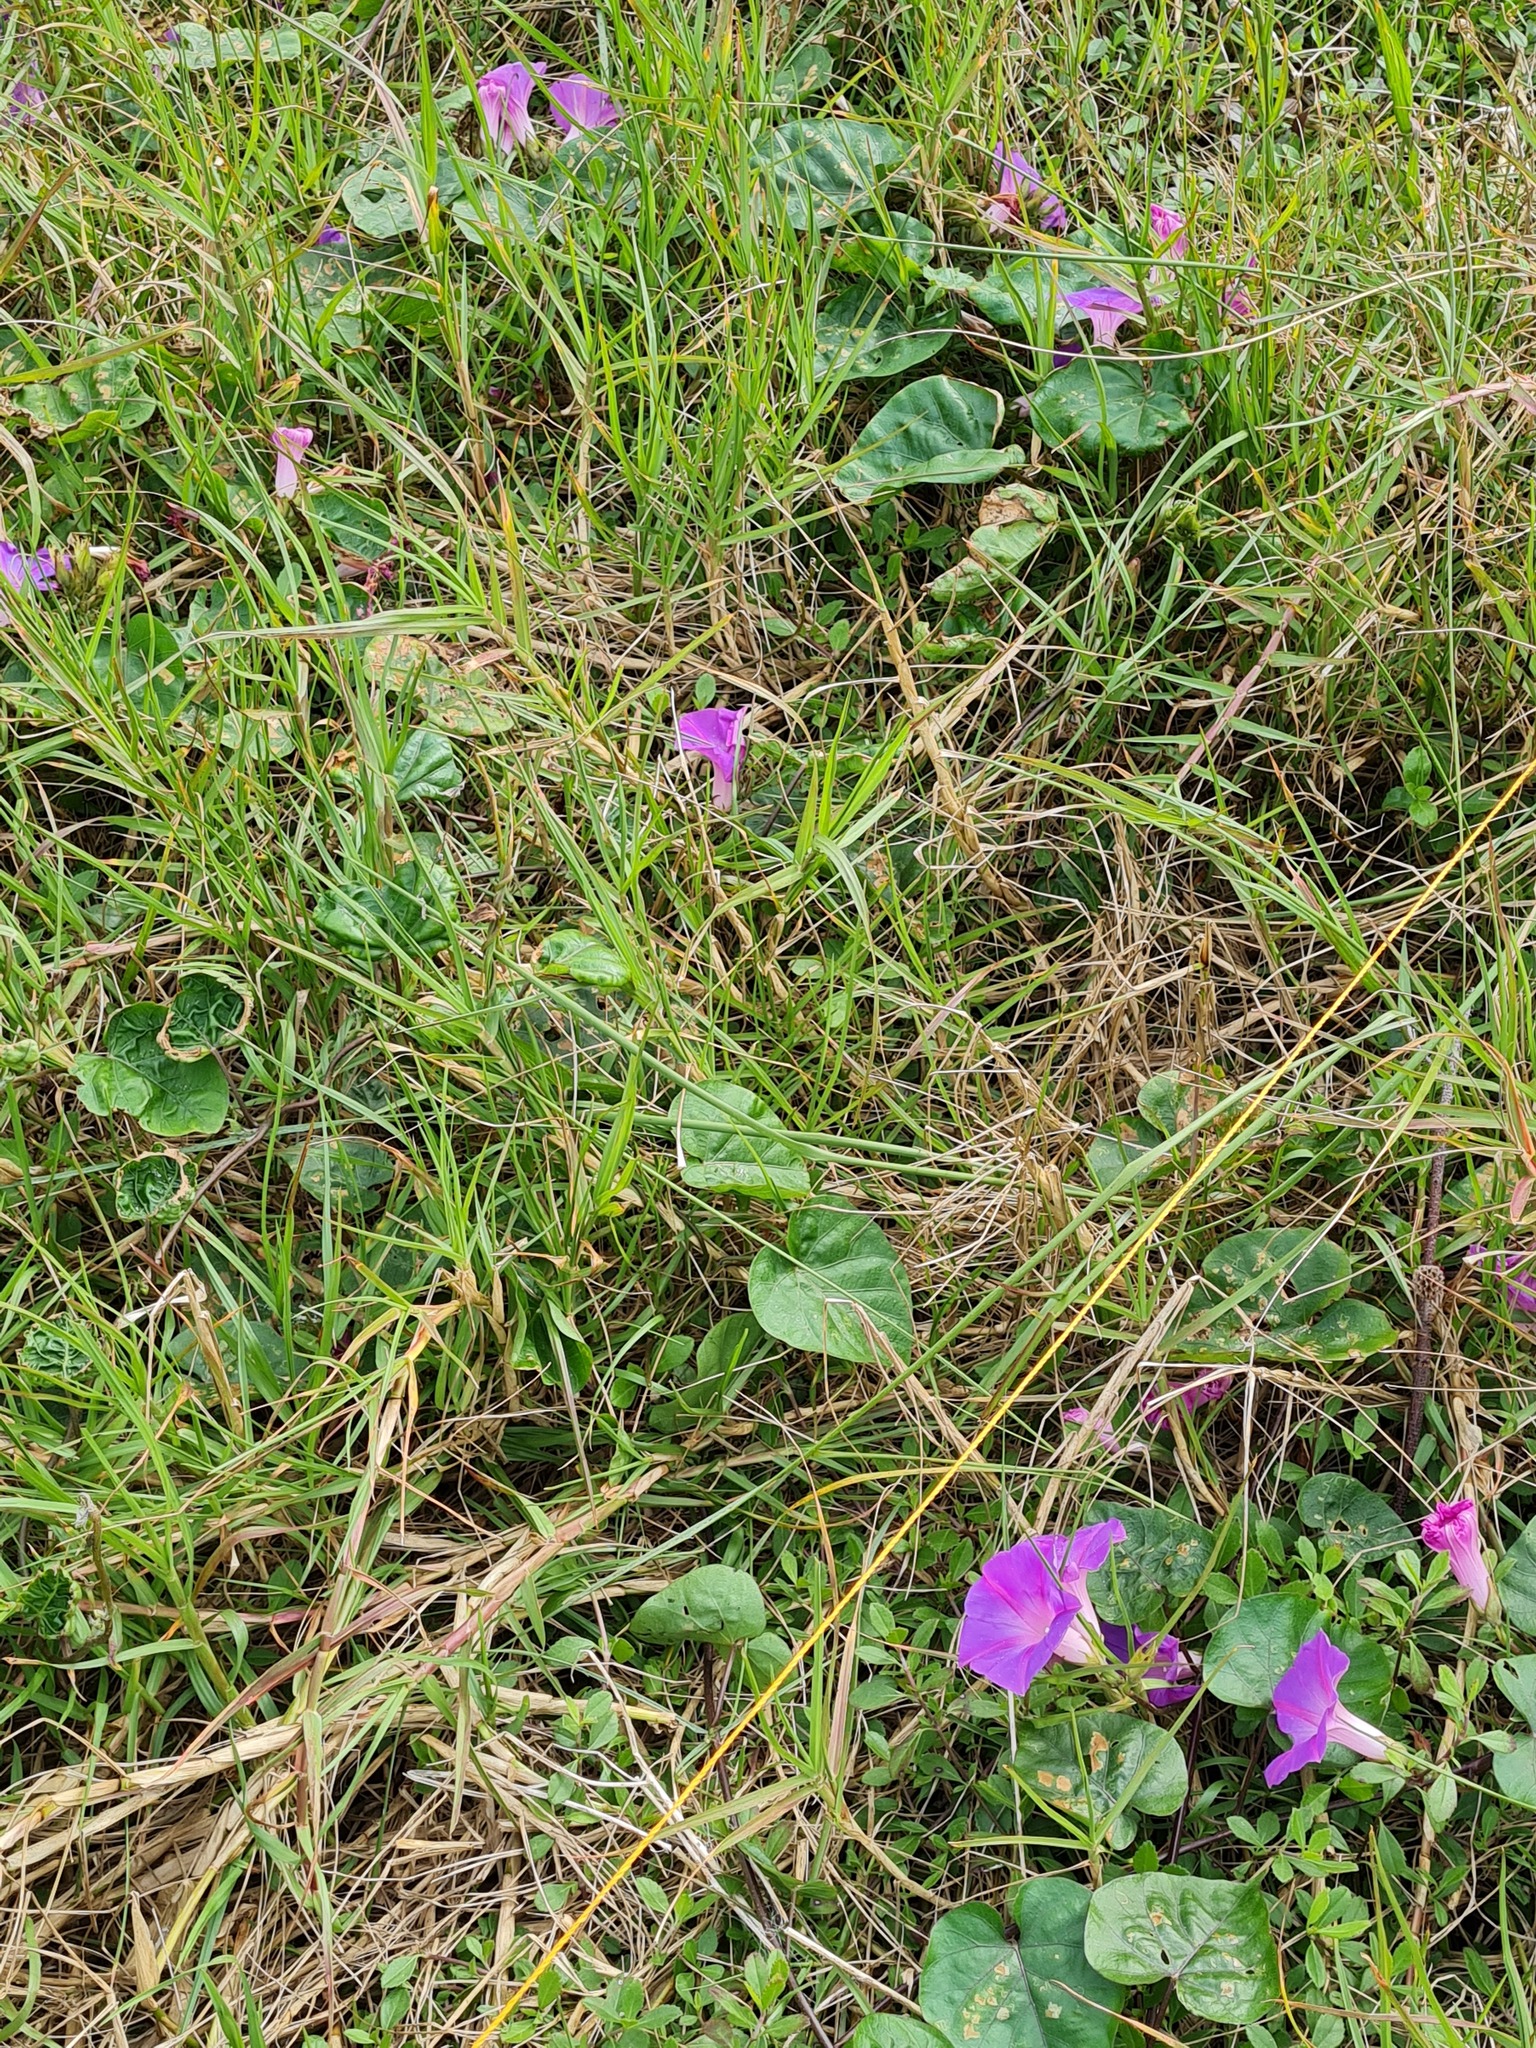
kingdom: Plantae
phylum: Tracheophyta
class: Magnoliopsida
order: Solanales
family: Convolvulaceae
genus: Ipomoea
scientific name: Ipomoea indica
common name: Blue dawnflower
